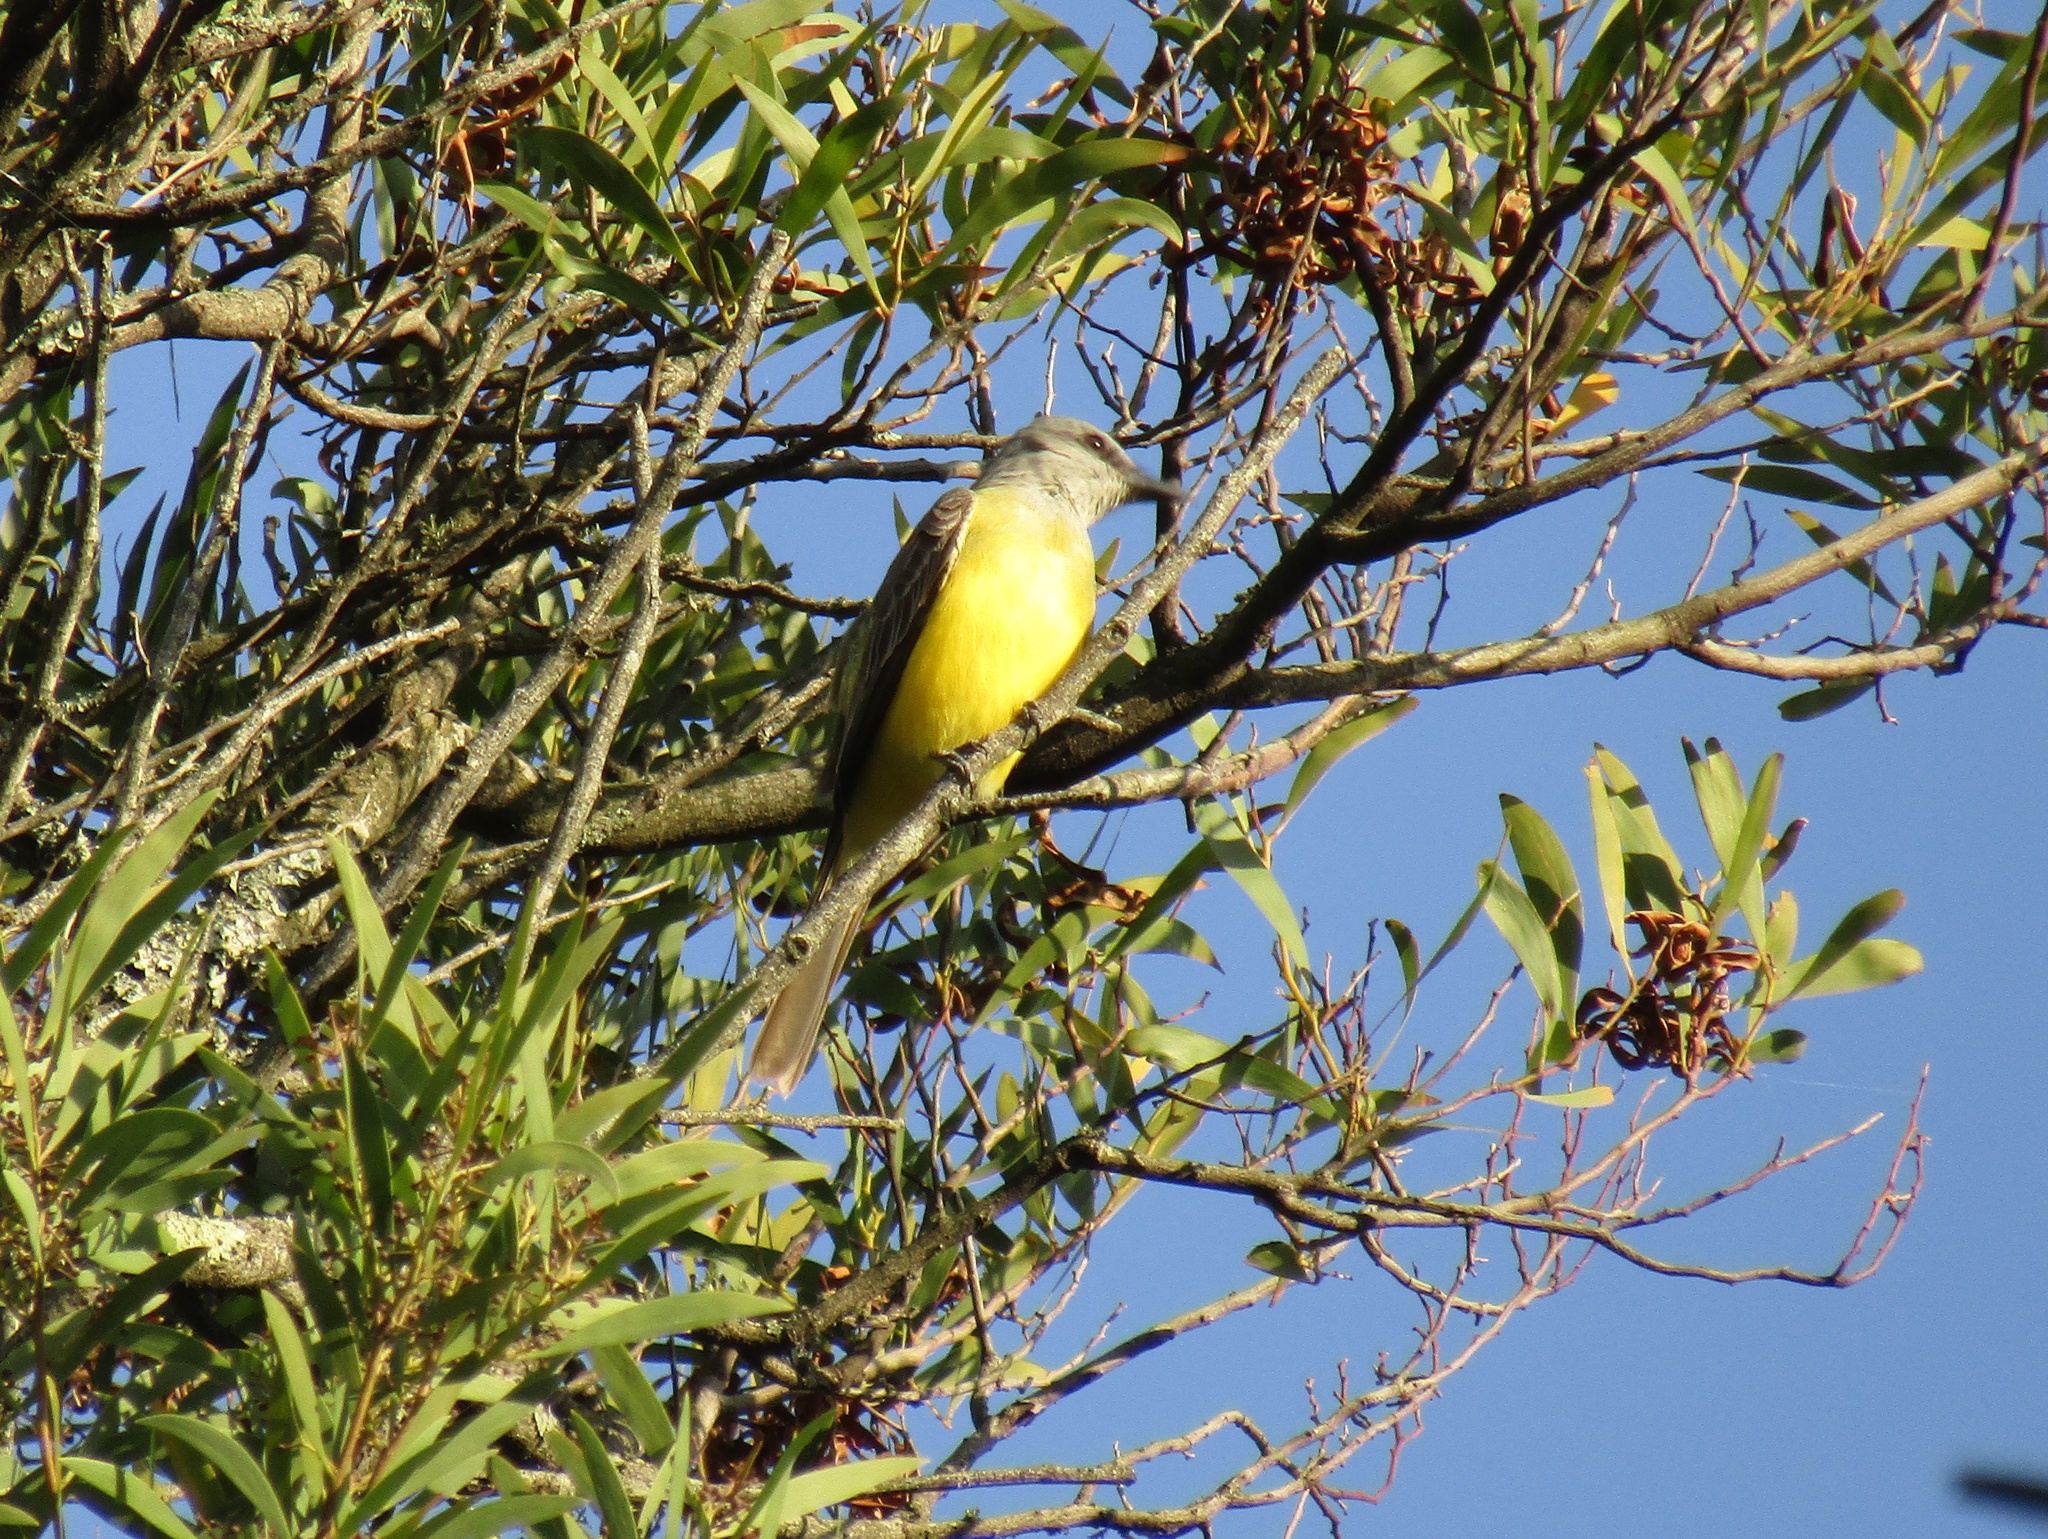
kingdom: Animalia
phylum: Chordata
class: Aves
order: Passeriformes
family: Tyrannidae
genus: Tyrannus
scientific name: Tyrannus melancholicus
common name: Tropical kingbird
